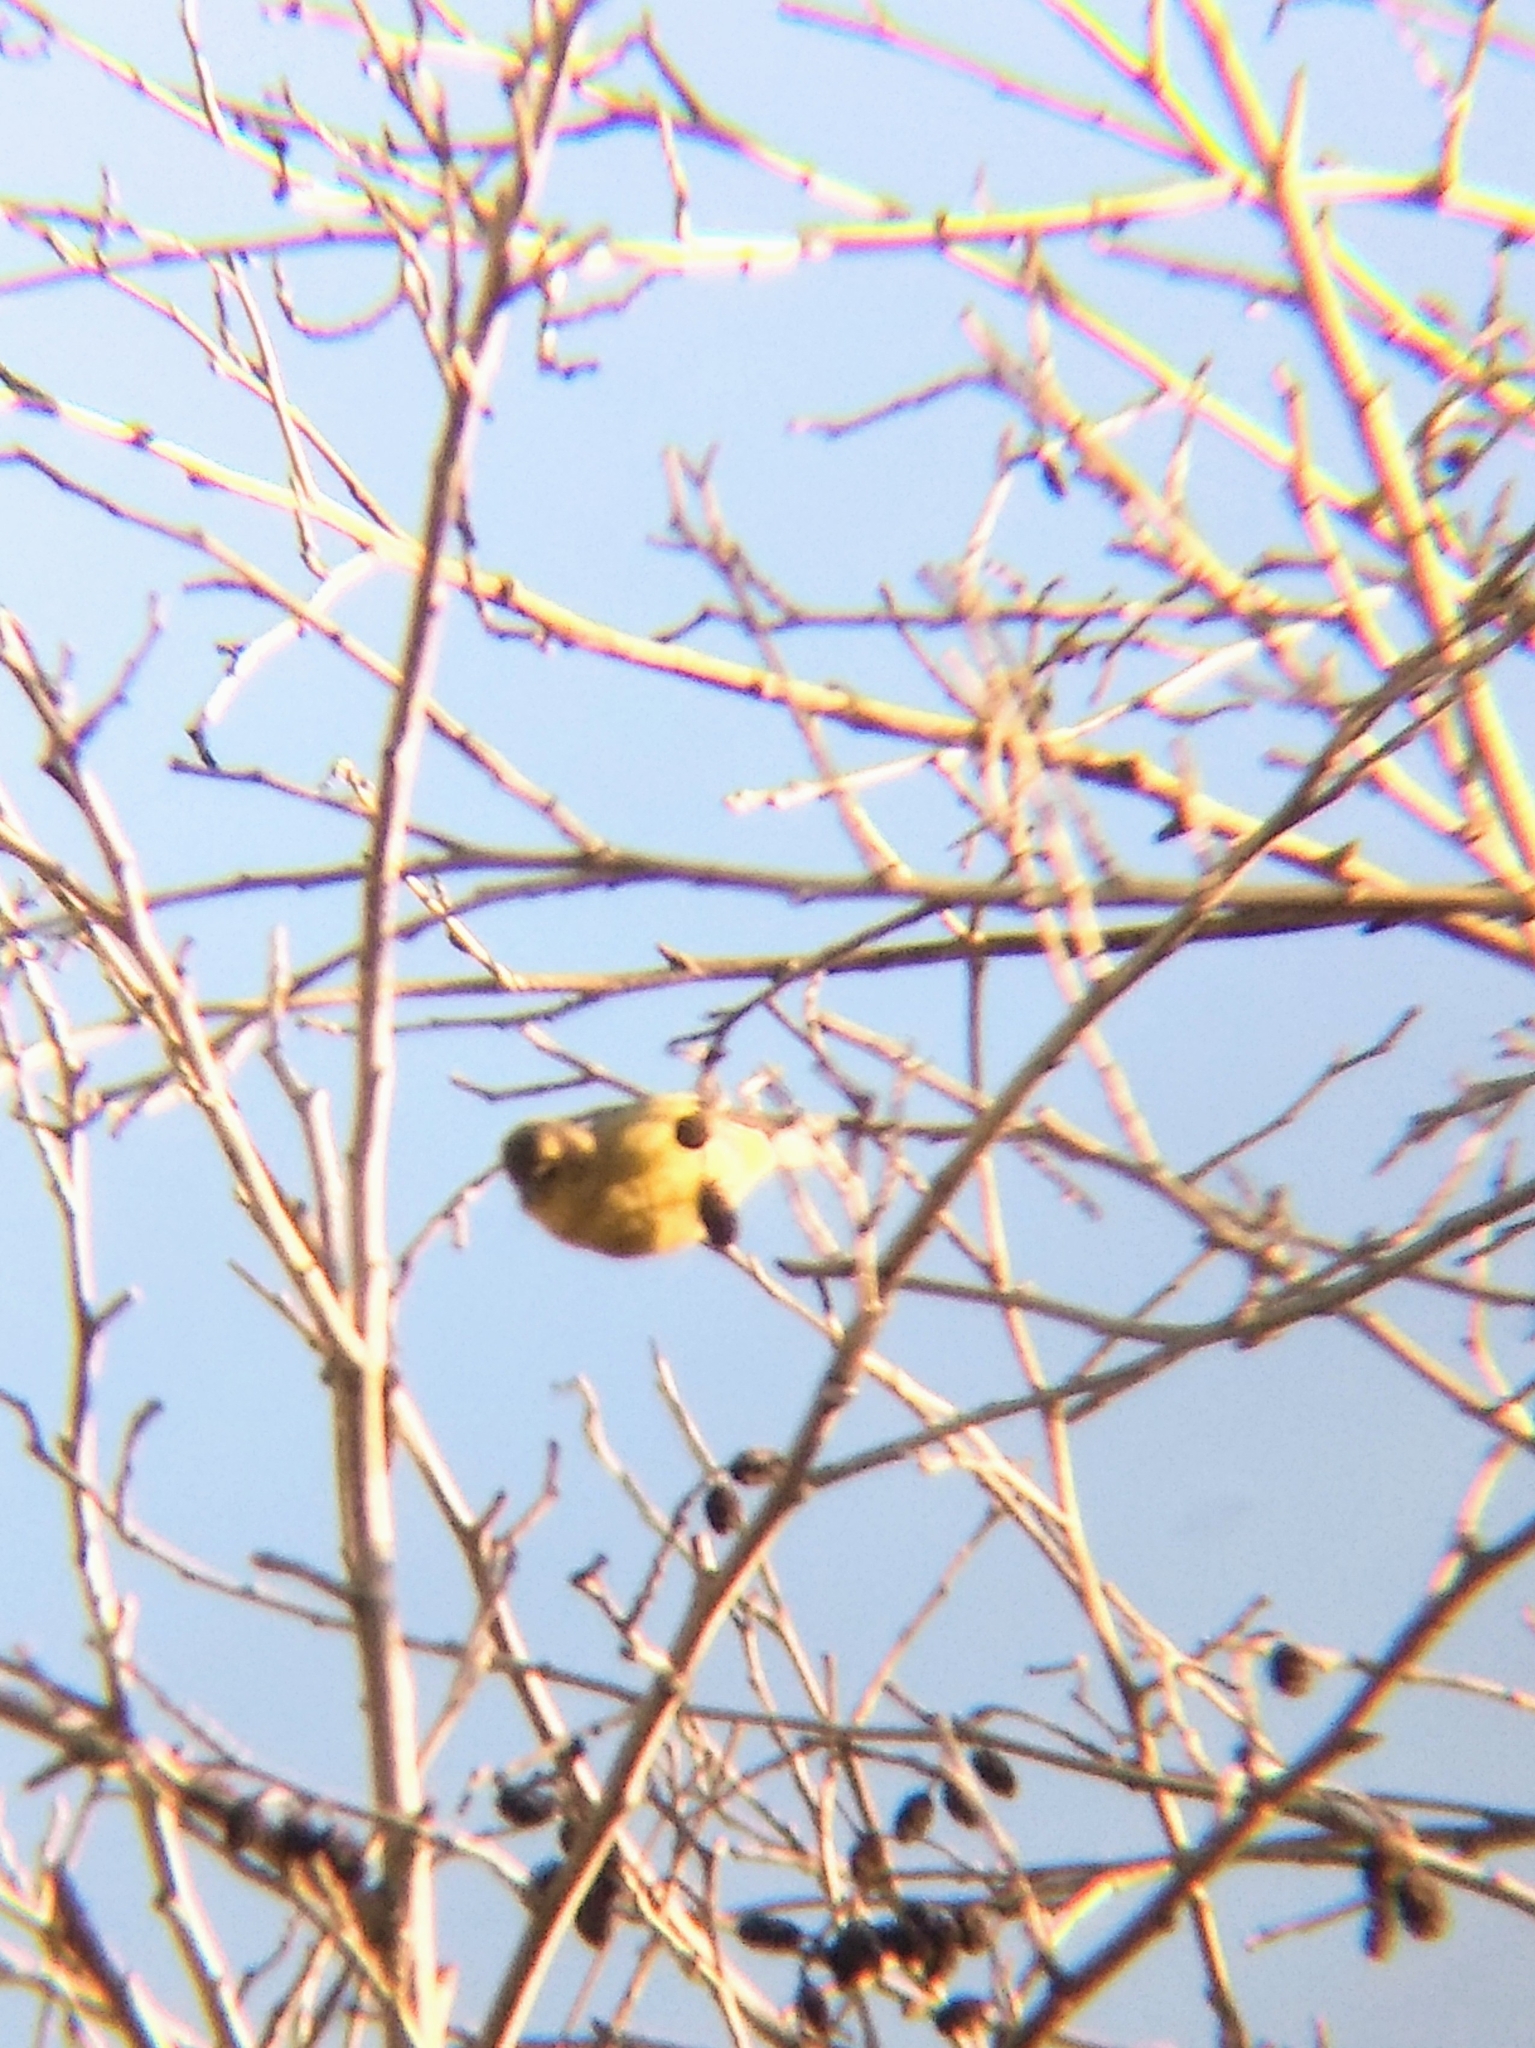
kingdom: Animalia
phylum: Chordata
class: Aves
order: Passeriformes
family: Fringillidae
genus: Spinus
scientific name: Spinus psaltria
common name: Lesser goldfinch
